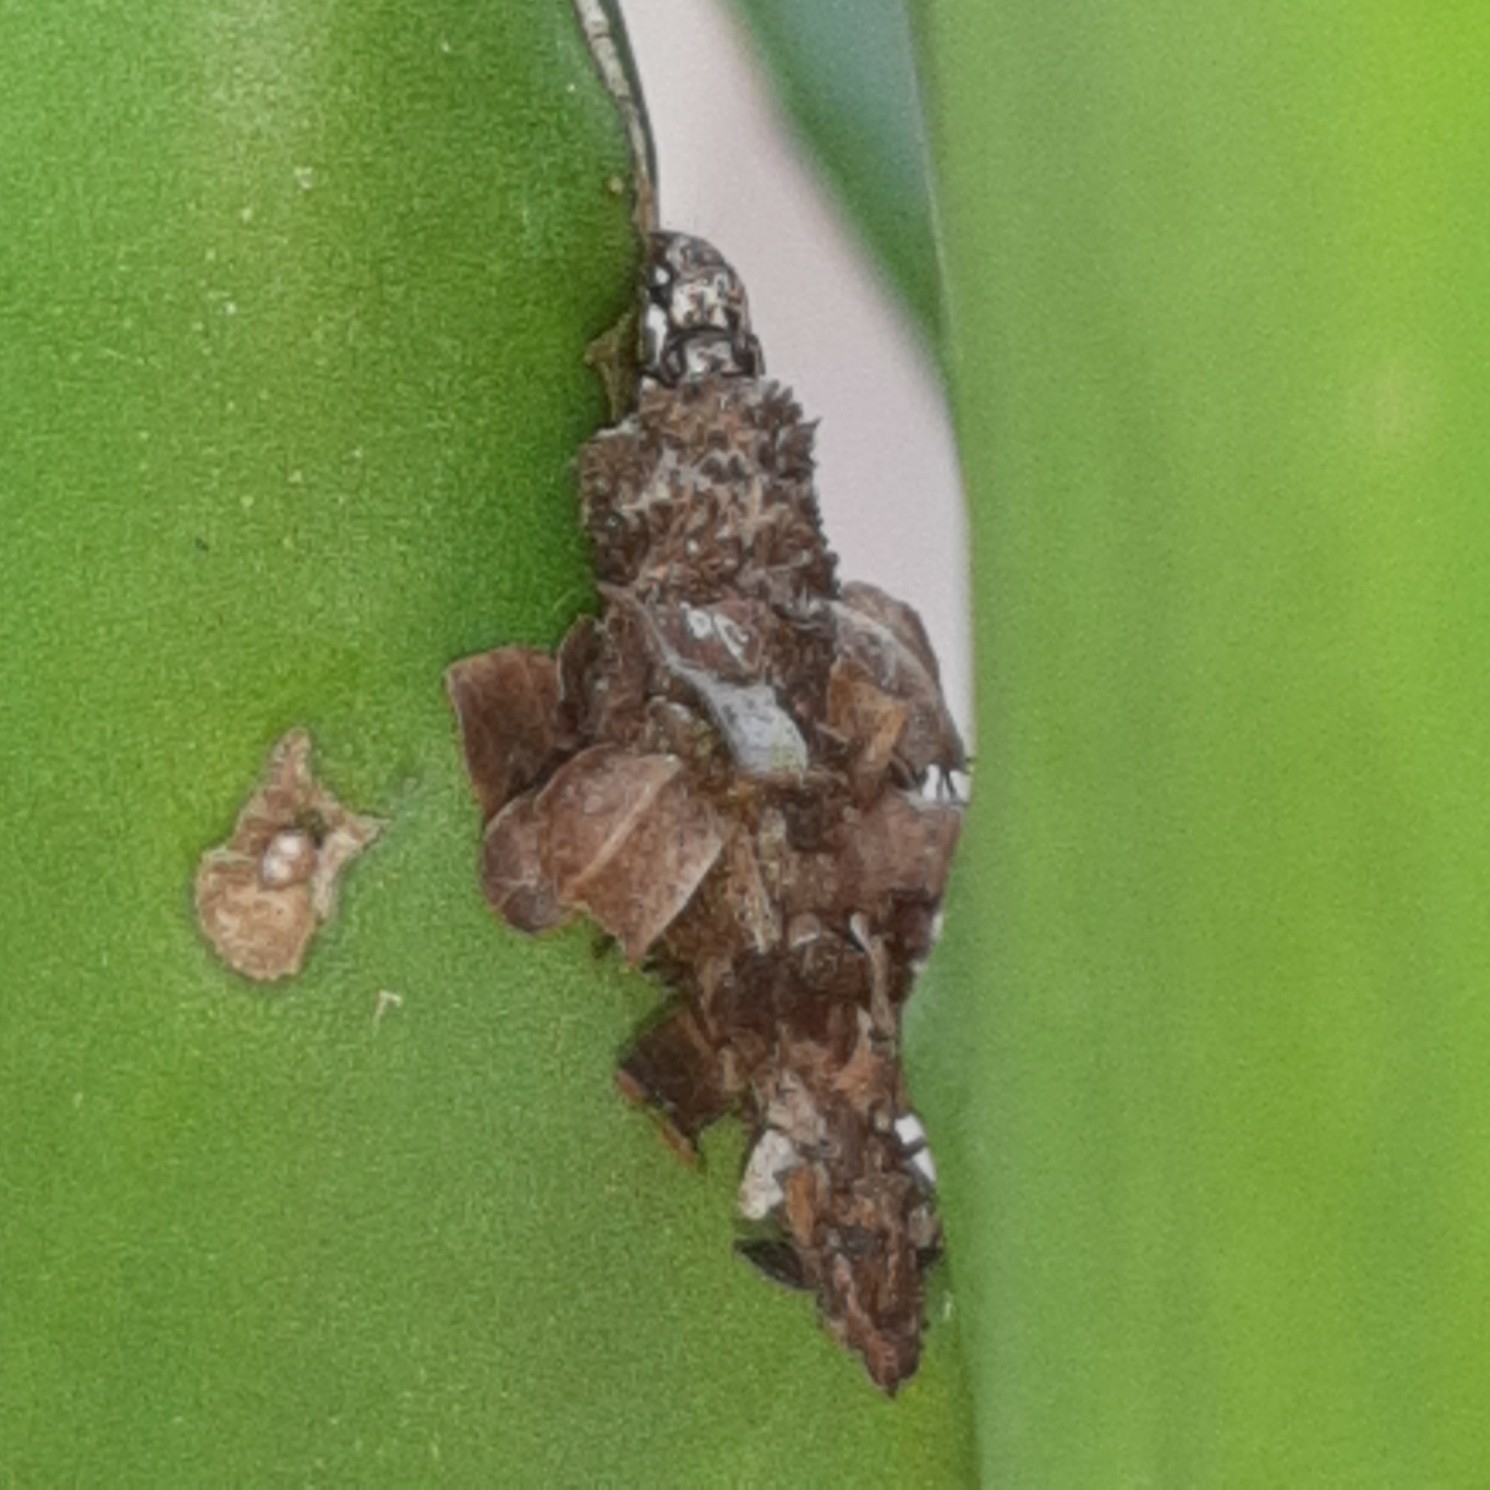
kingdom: Animalia
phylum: Arthropoda
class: Insecta
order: Lepidoptera
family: Psychidae
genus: Oiketicus
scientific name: Oiketicus kirbyi
